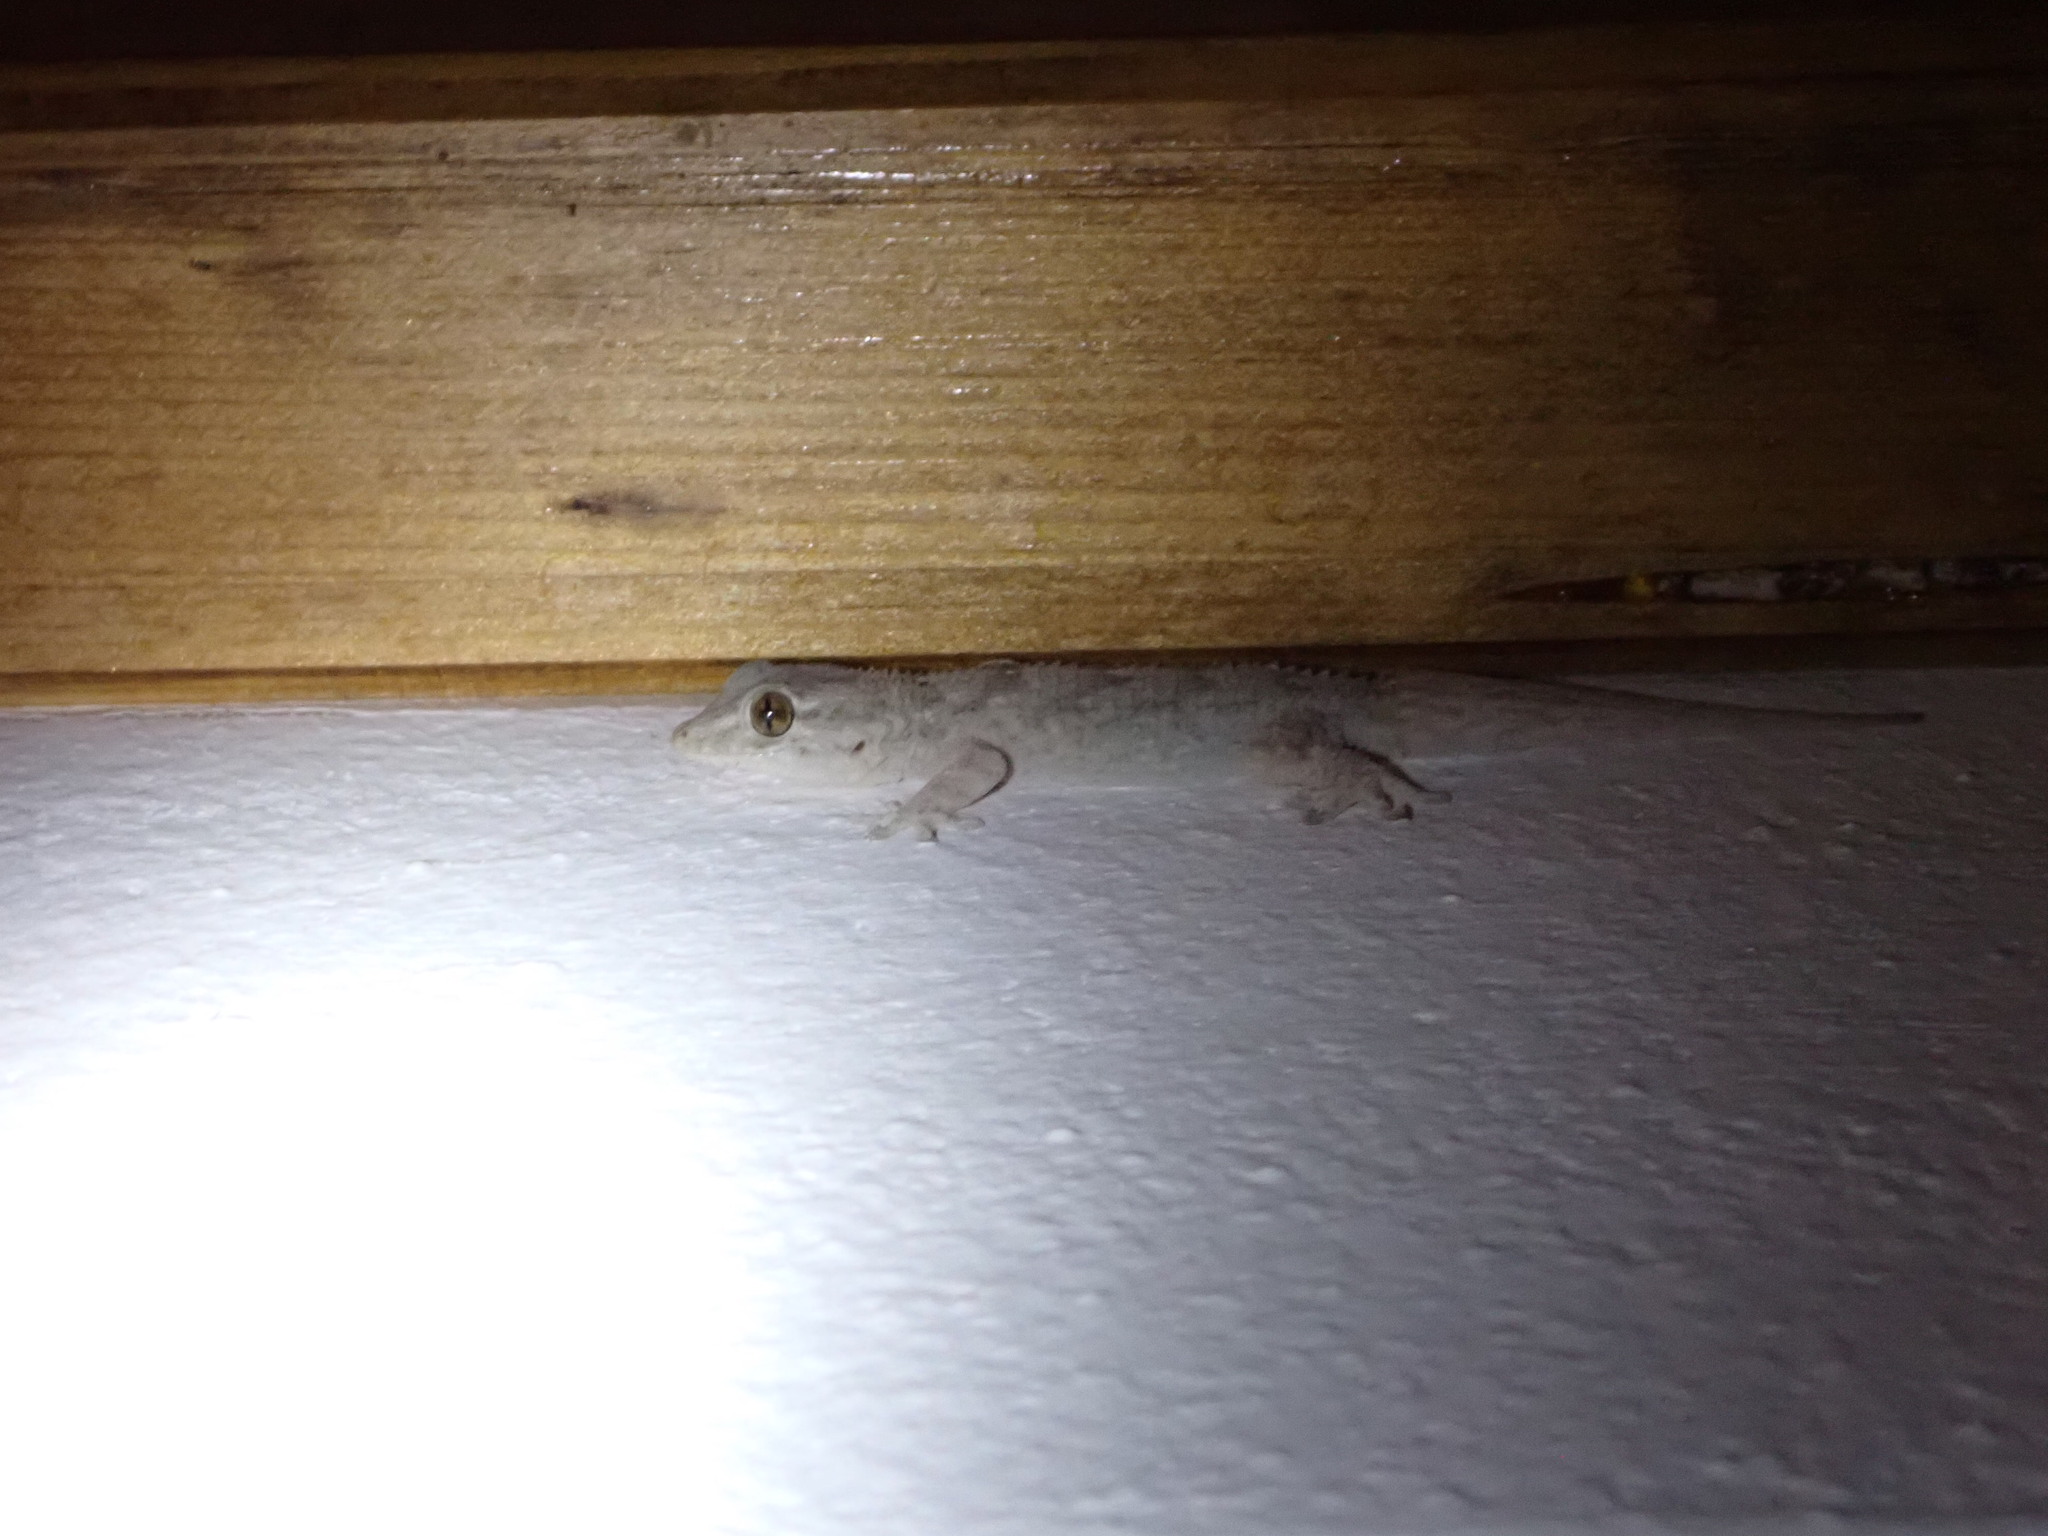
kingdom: Animalia
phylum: Chordata
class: Squamata
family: Phyllodactylidae
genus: Tarentola
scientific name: Tarentola angustimentalis
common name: East canary gecko
